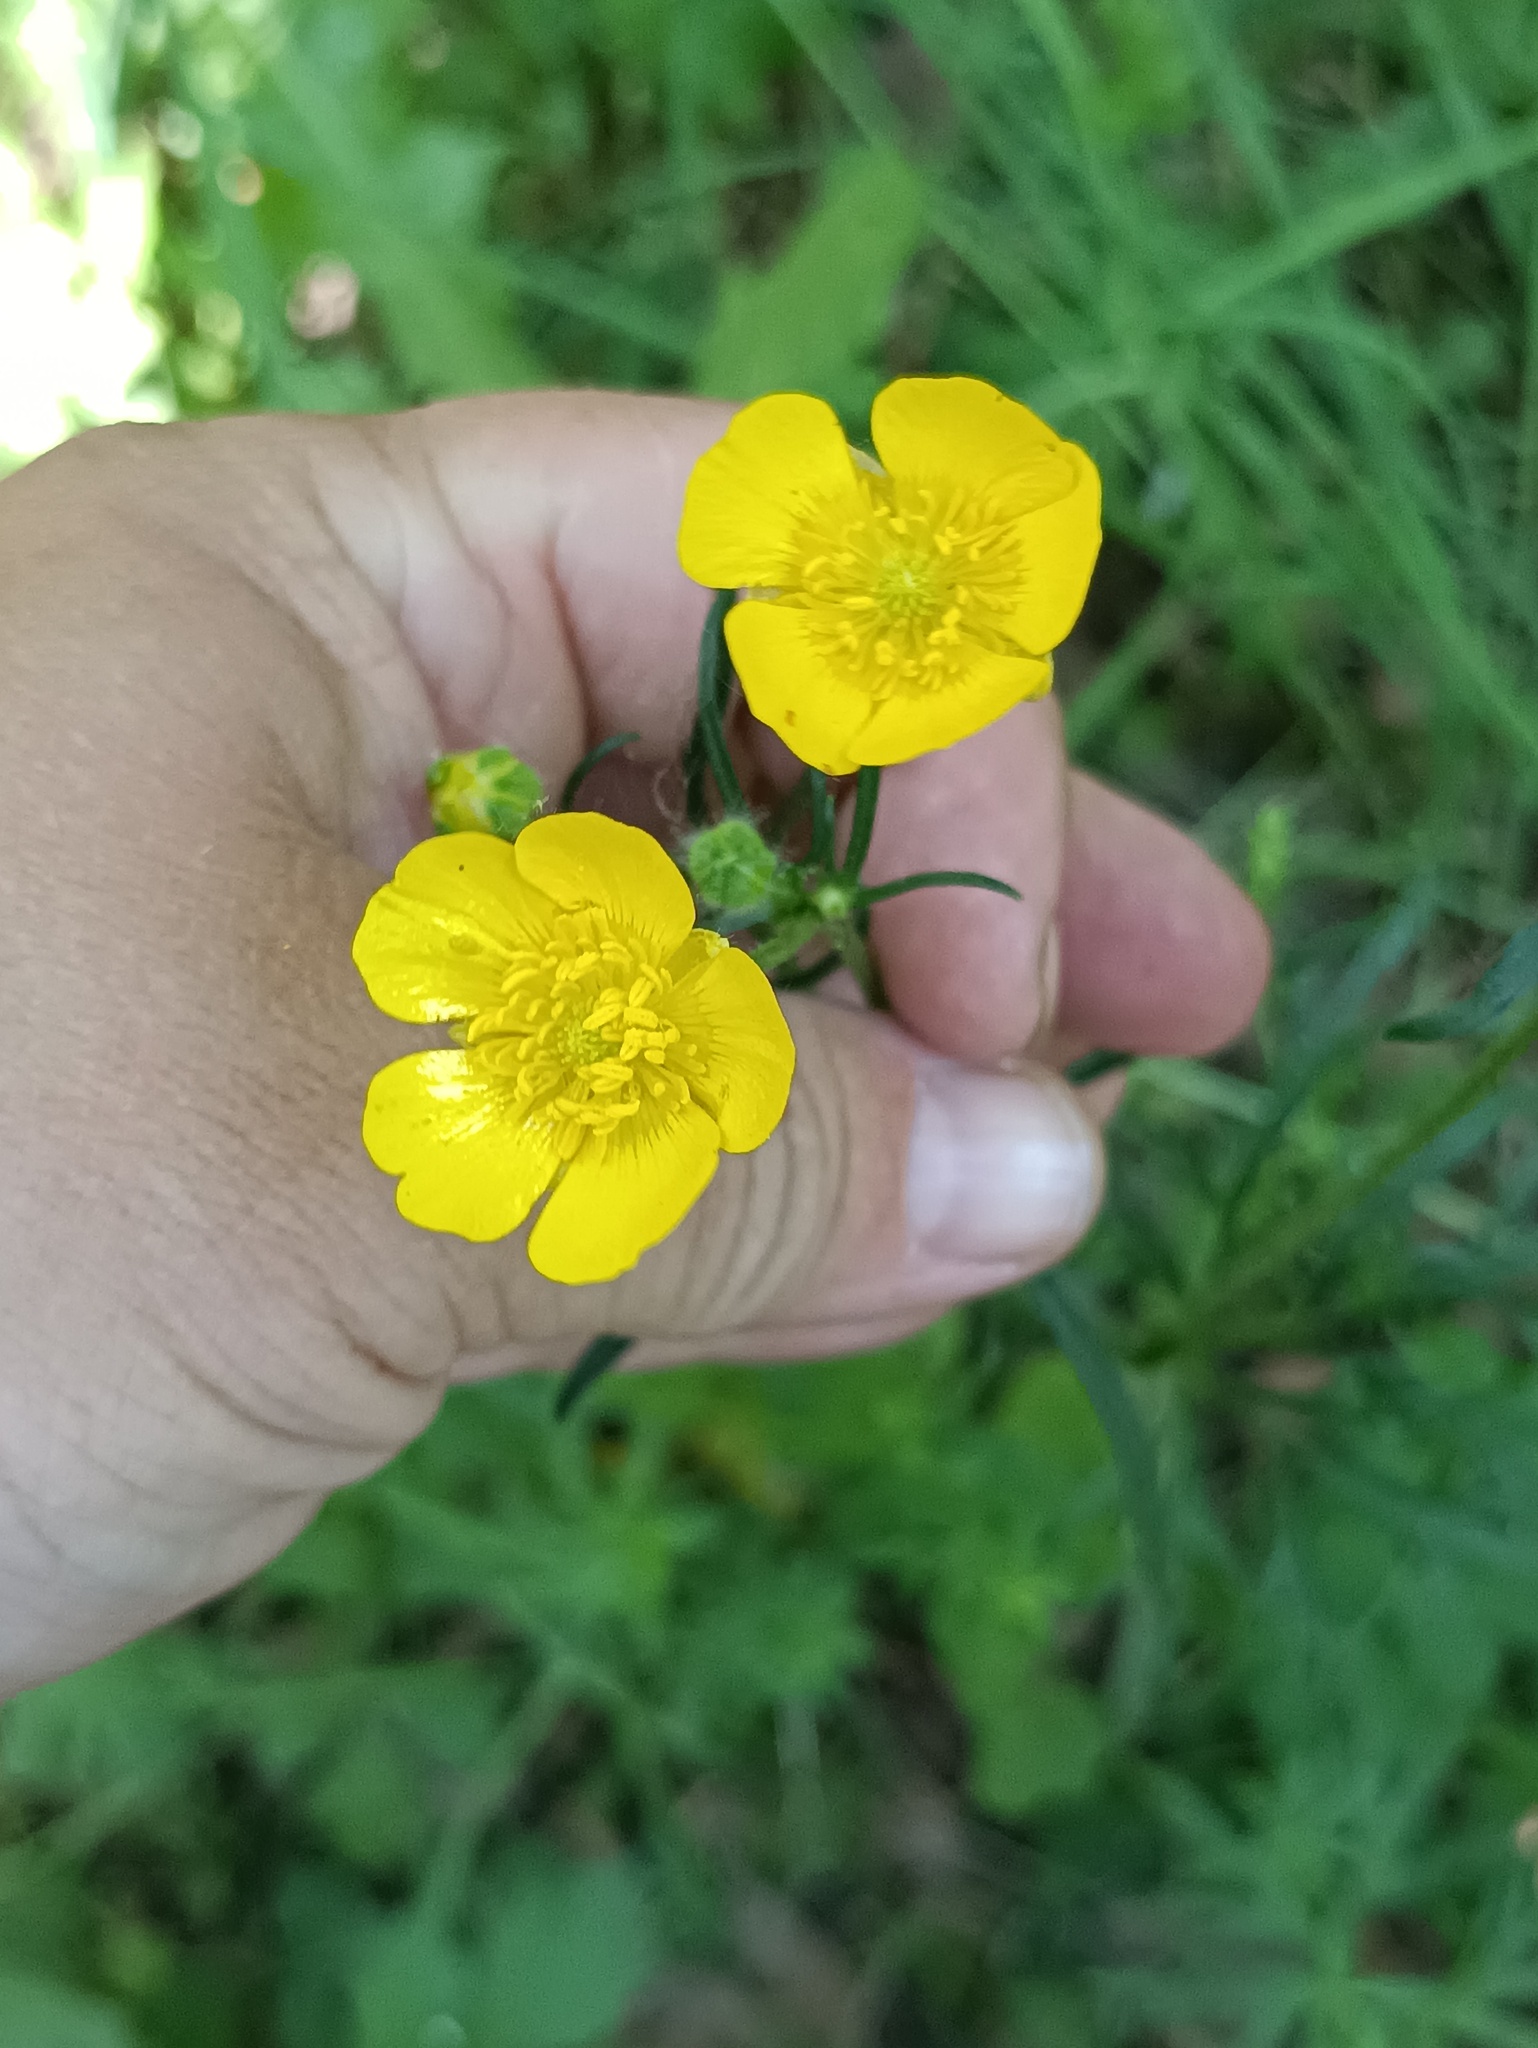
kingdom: Plantae
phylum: Tracheophyta
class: Magnoliopsida
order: Ranunculales
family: Ranunculaceae
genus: Ranunculus
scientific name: Ranunculus polyanthemos
